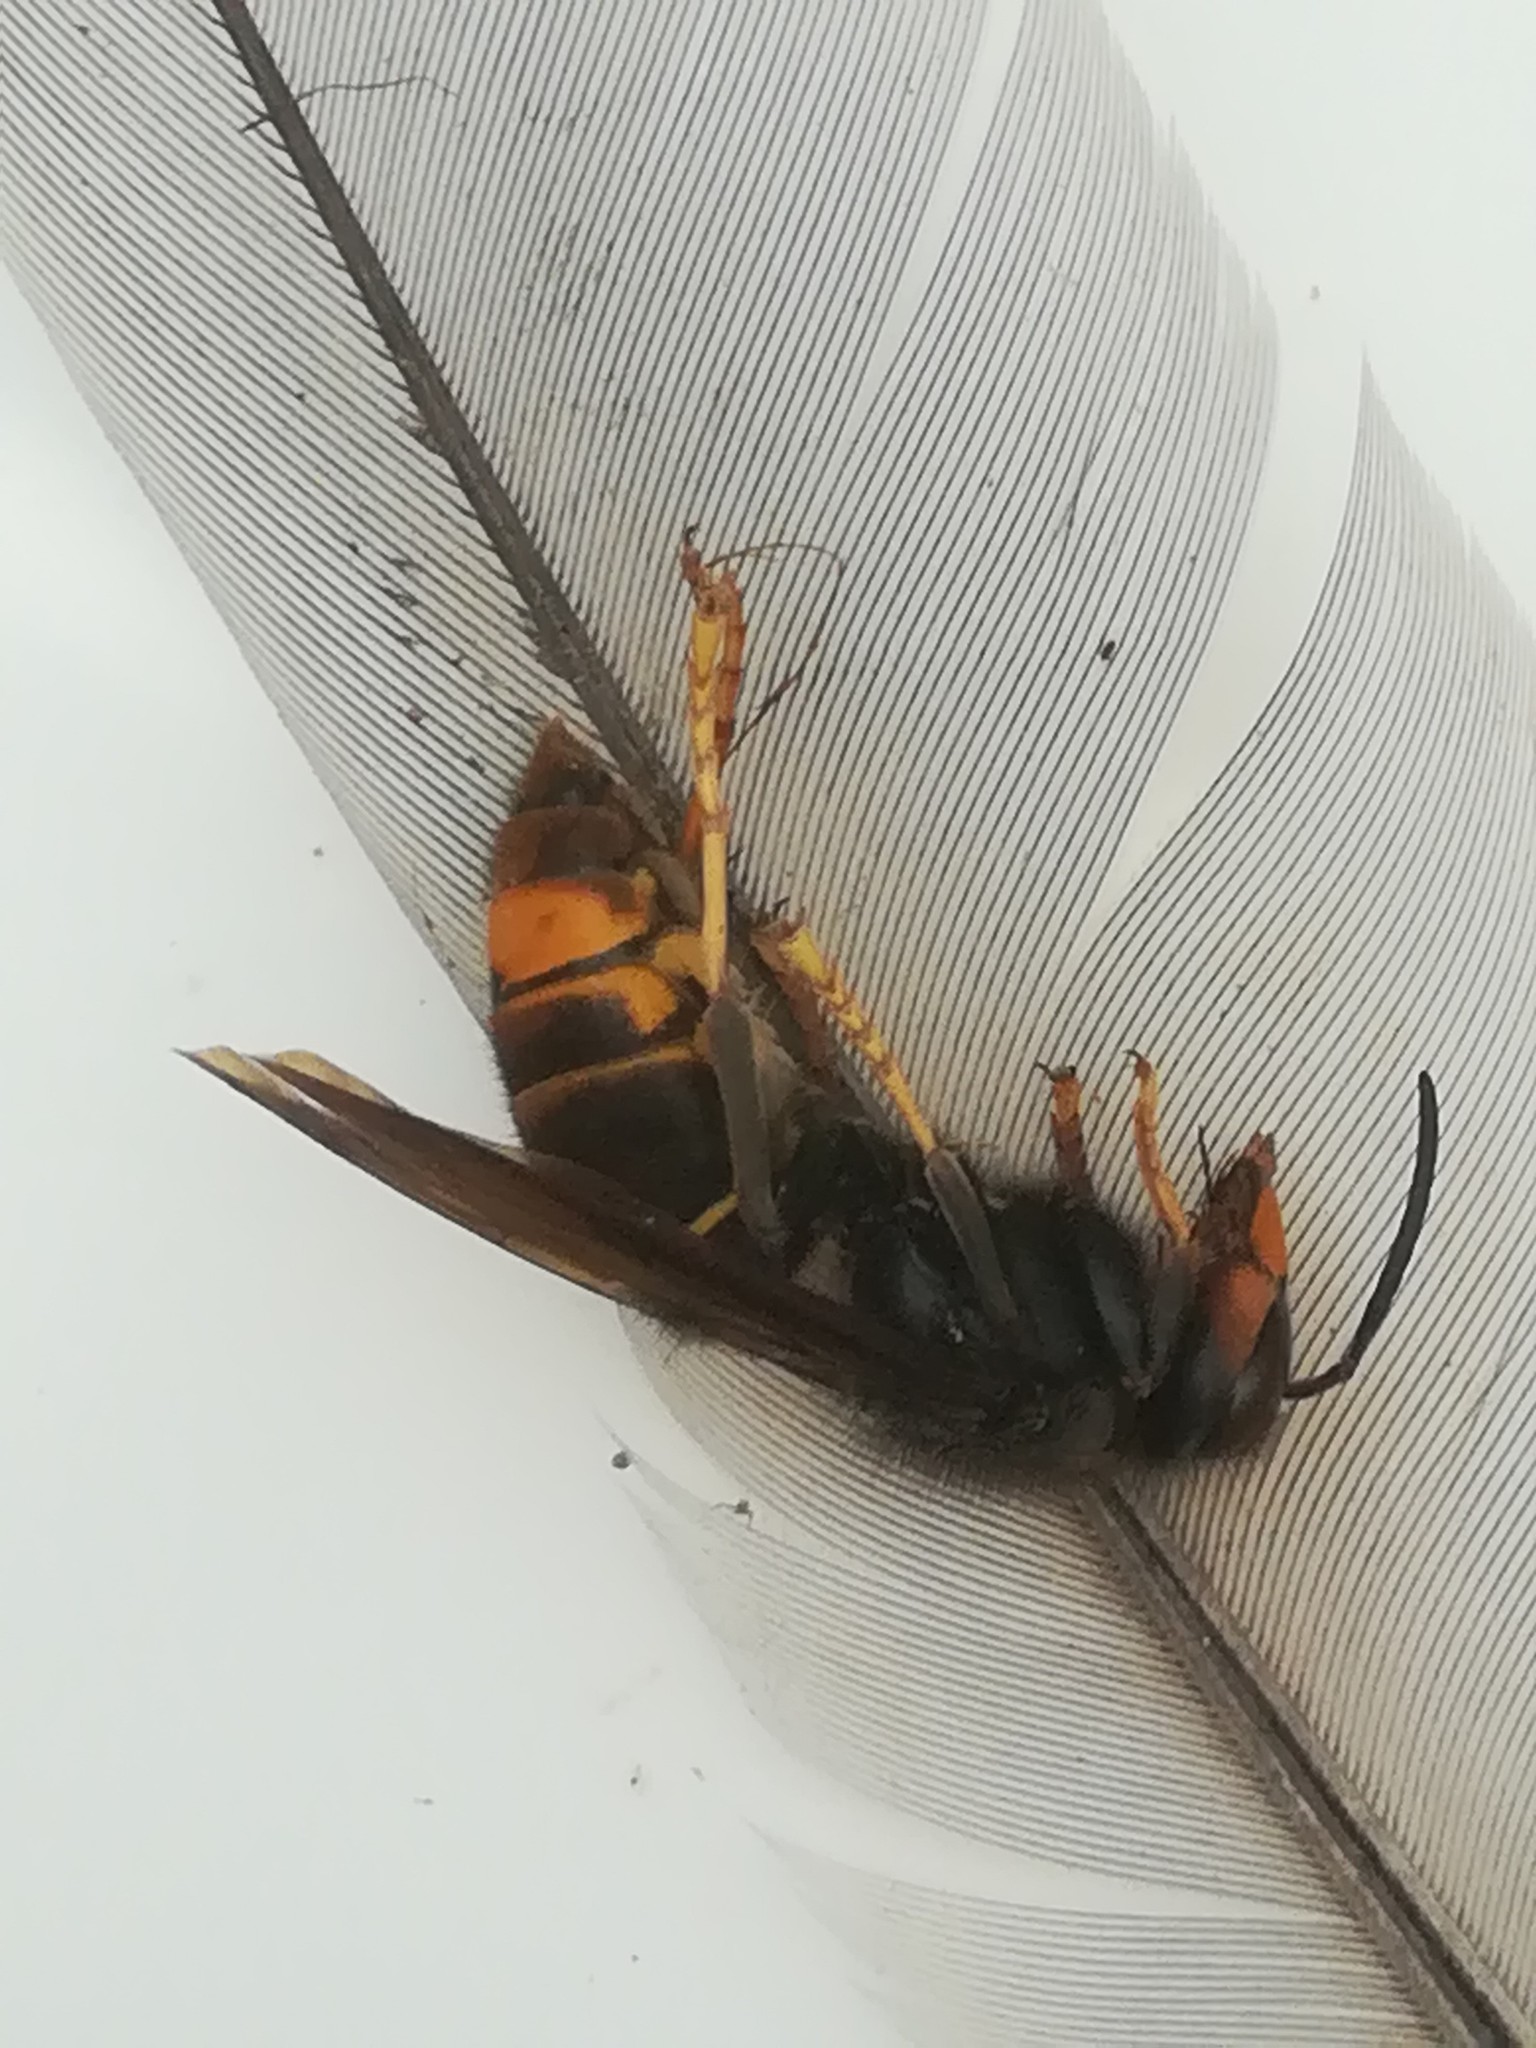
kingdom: Animalia
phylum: Arthropoda
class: Insecta
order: Hymenoptera
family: Vespidae
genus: Vespa
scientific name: Vespa velutina
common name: Asian hornet
